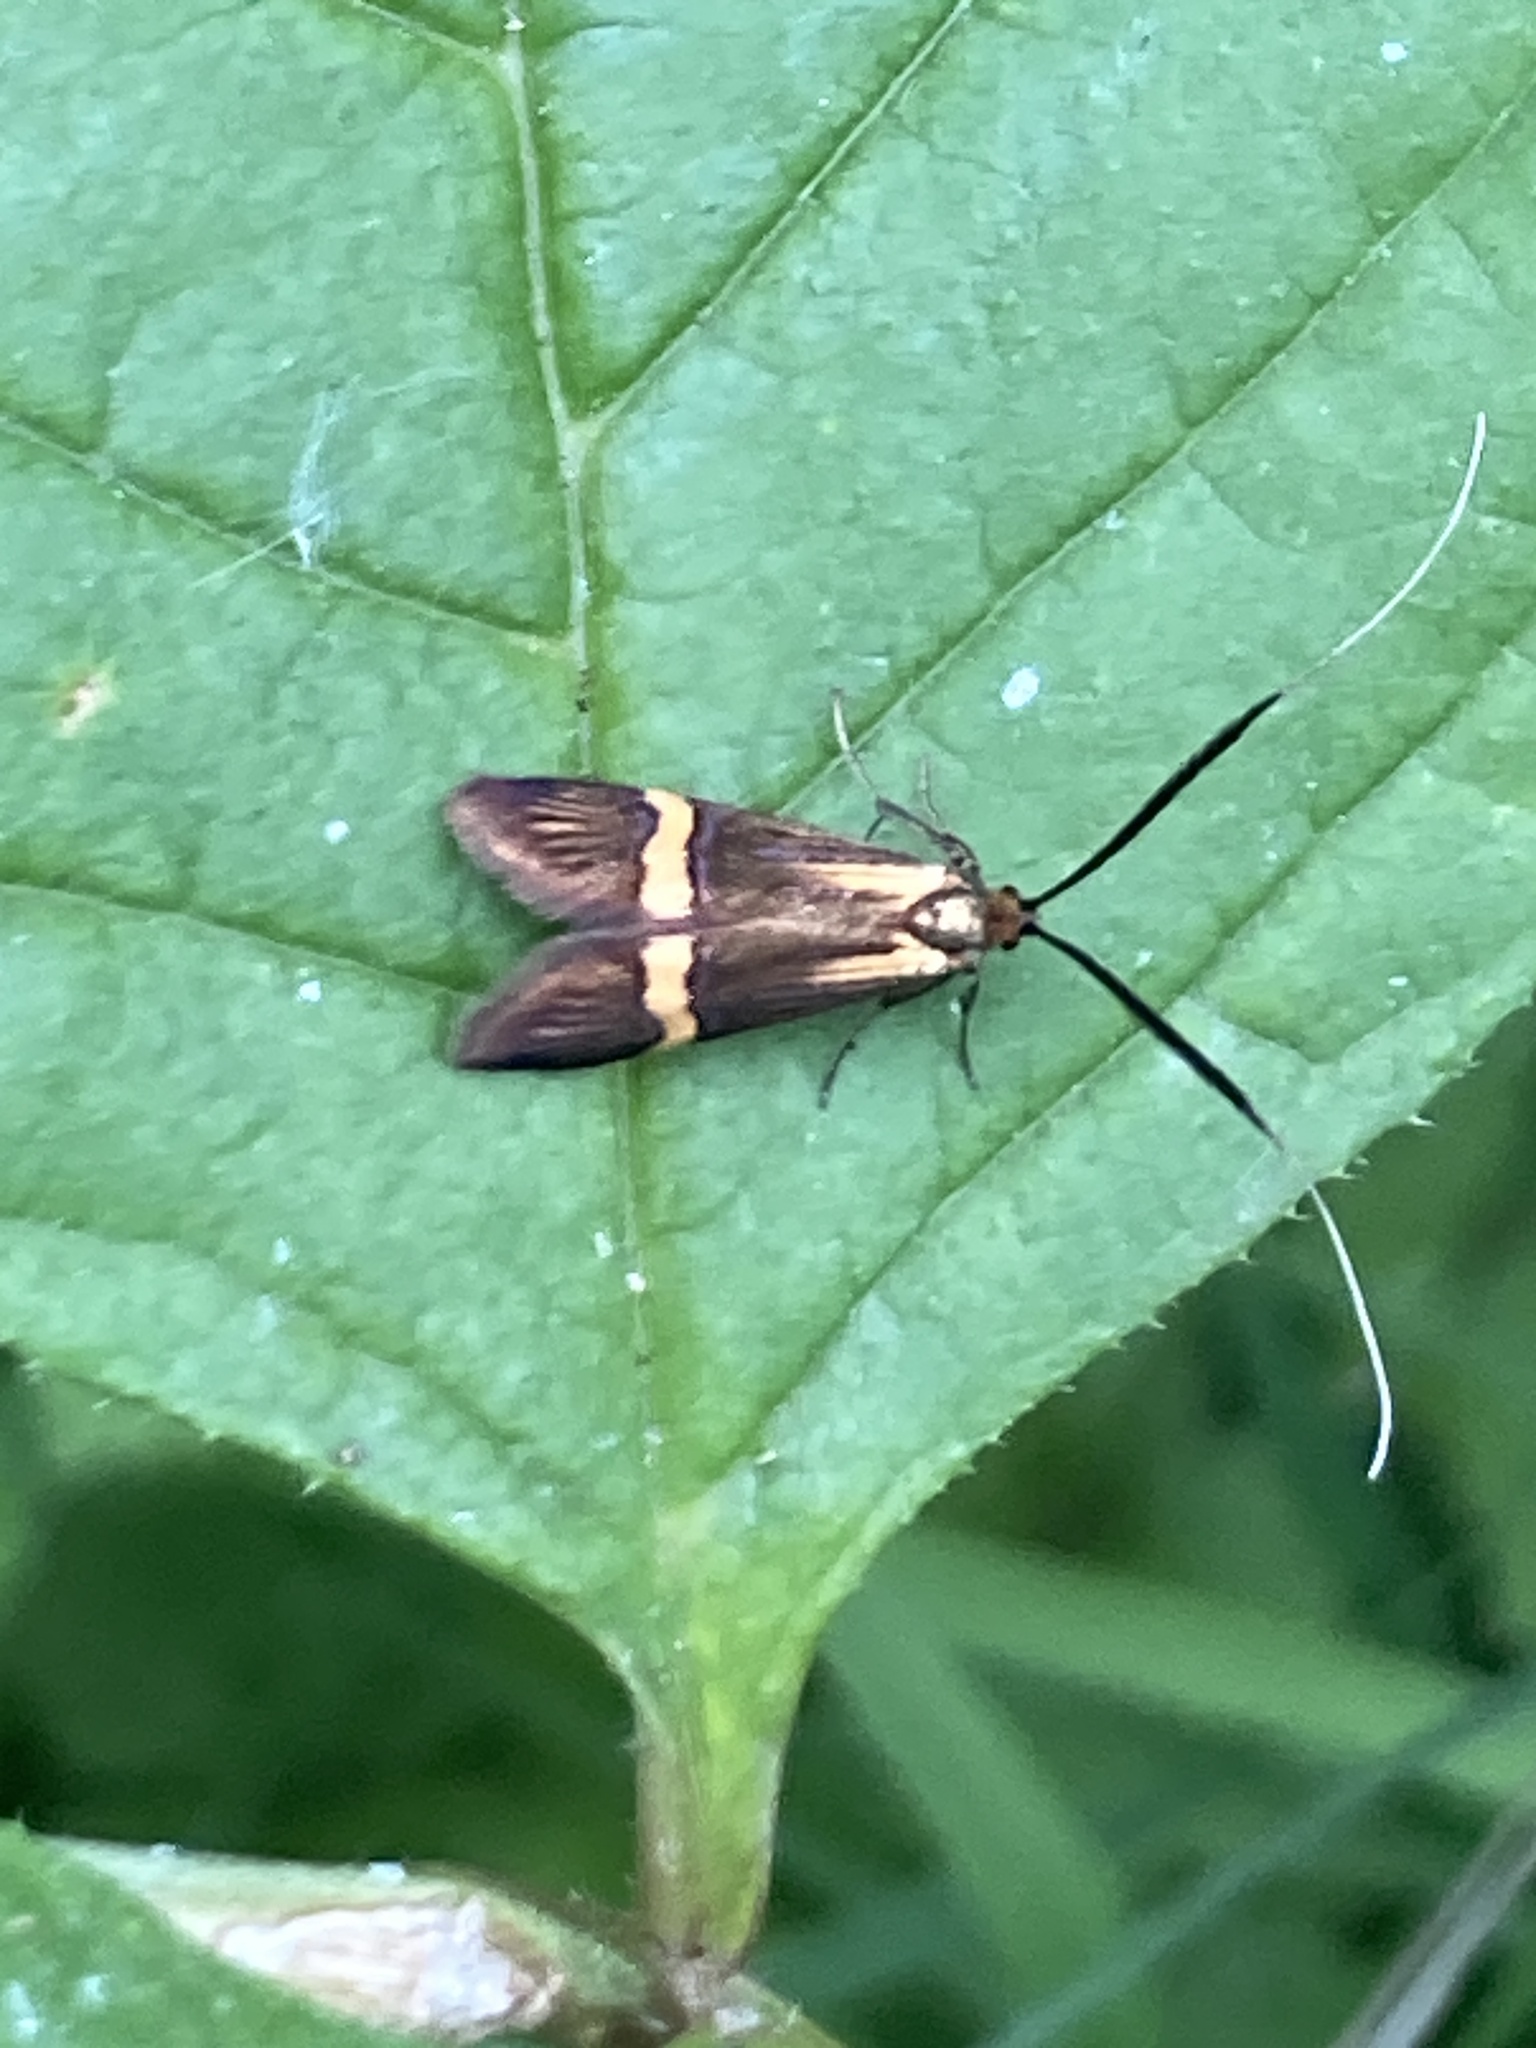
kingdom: Animalia
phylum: Arthropoda
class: Insecta
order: Lepidoptera
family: Adelidae
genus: Nemophora
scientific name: Nemophora degeerella
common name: Yellow-barred long-horn
